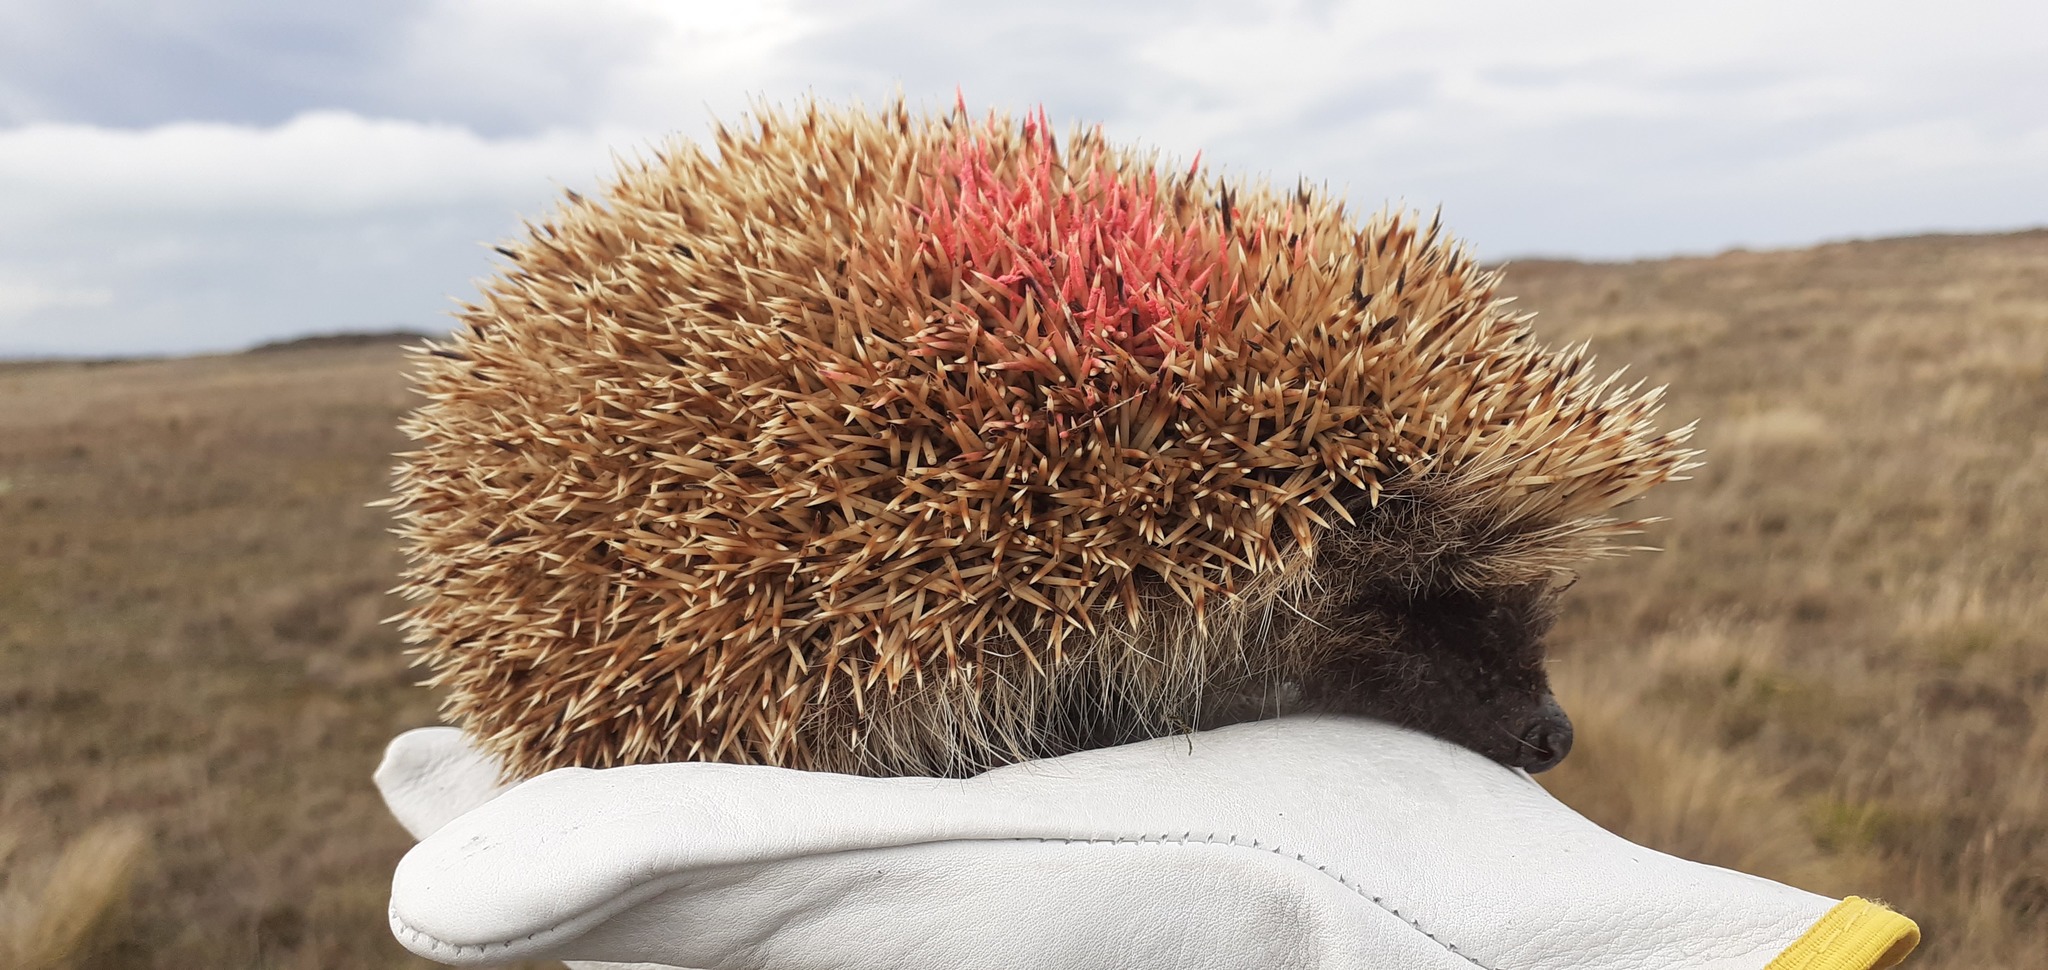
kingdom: Animalia
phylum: Chordata
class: Mammalia
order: Erinaceomorpha
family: Erinaceidae
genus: Erinaceus
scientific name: Erinaceus europaeus
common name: West european hedgehog
